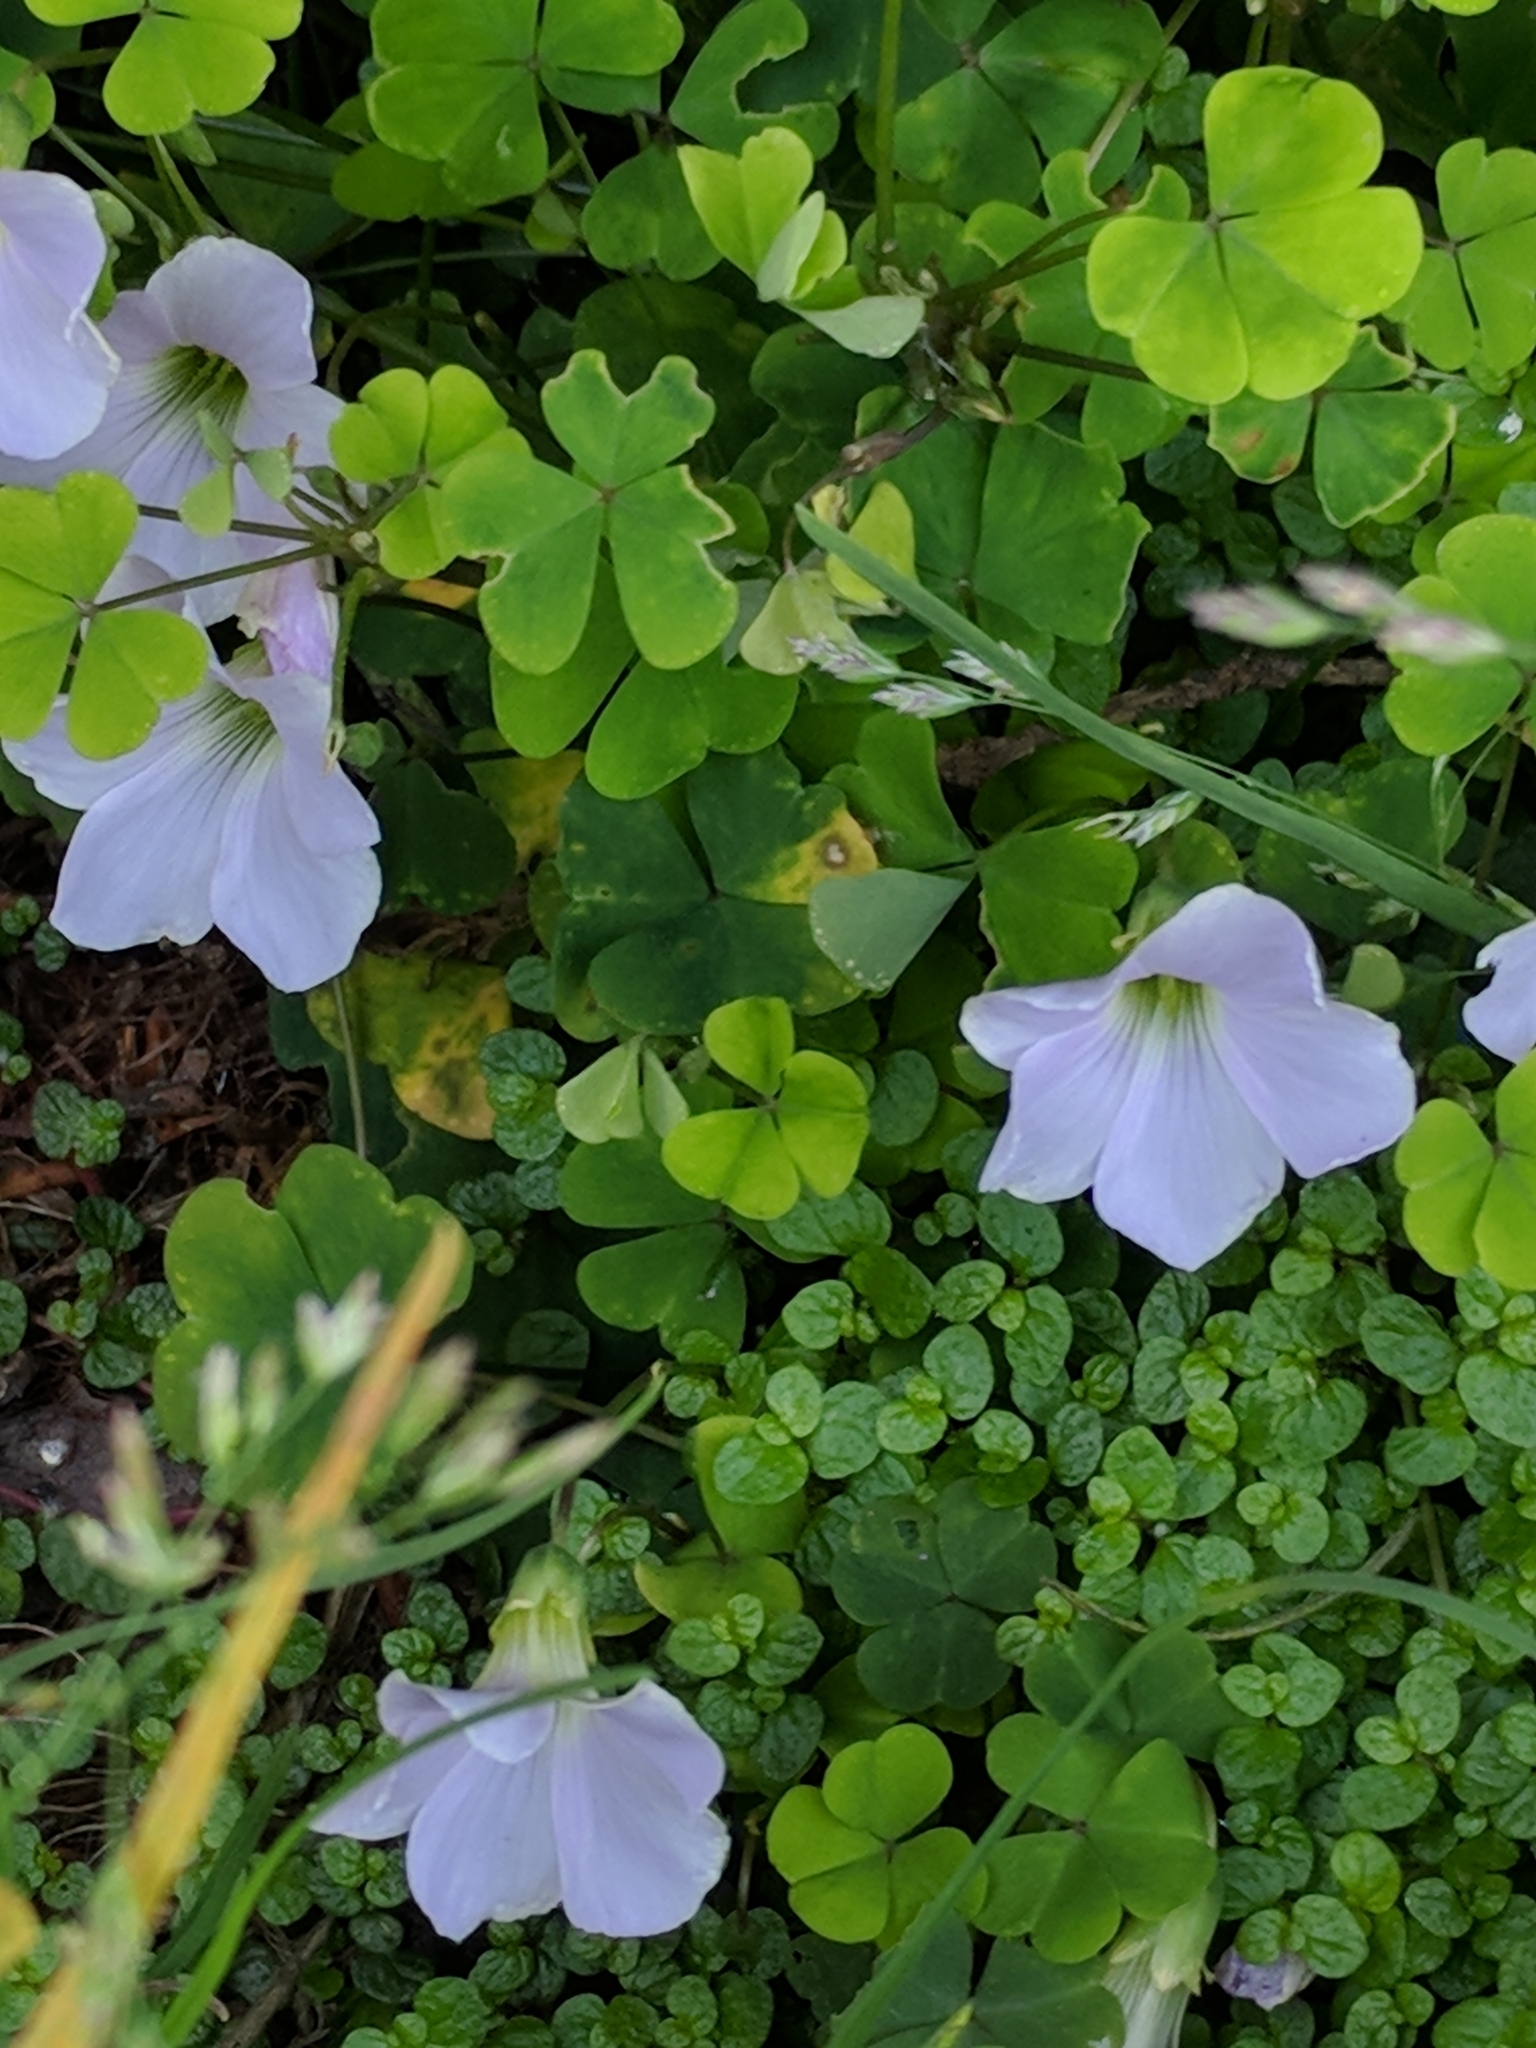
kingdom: Plantae
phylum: Tracheophyta
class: Magnoliopsida
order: Oxalidales
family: Oxalidaceae
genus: Oxalis
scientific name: Oxalis incarnata
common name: Pale pink-sorrel
